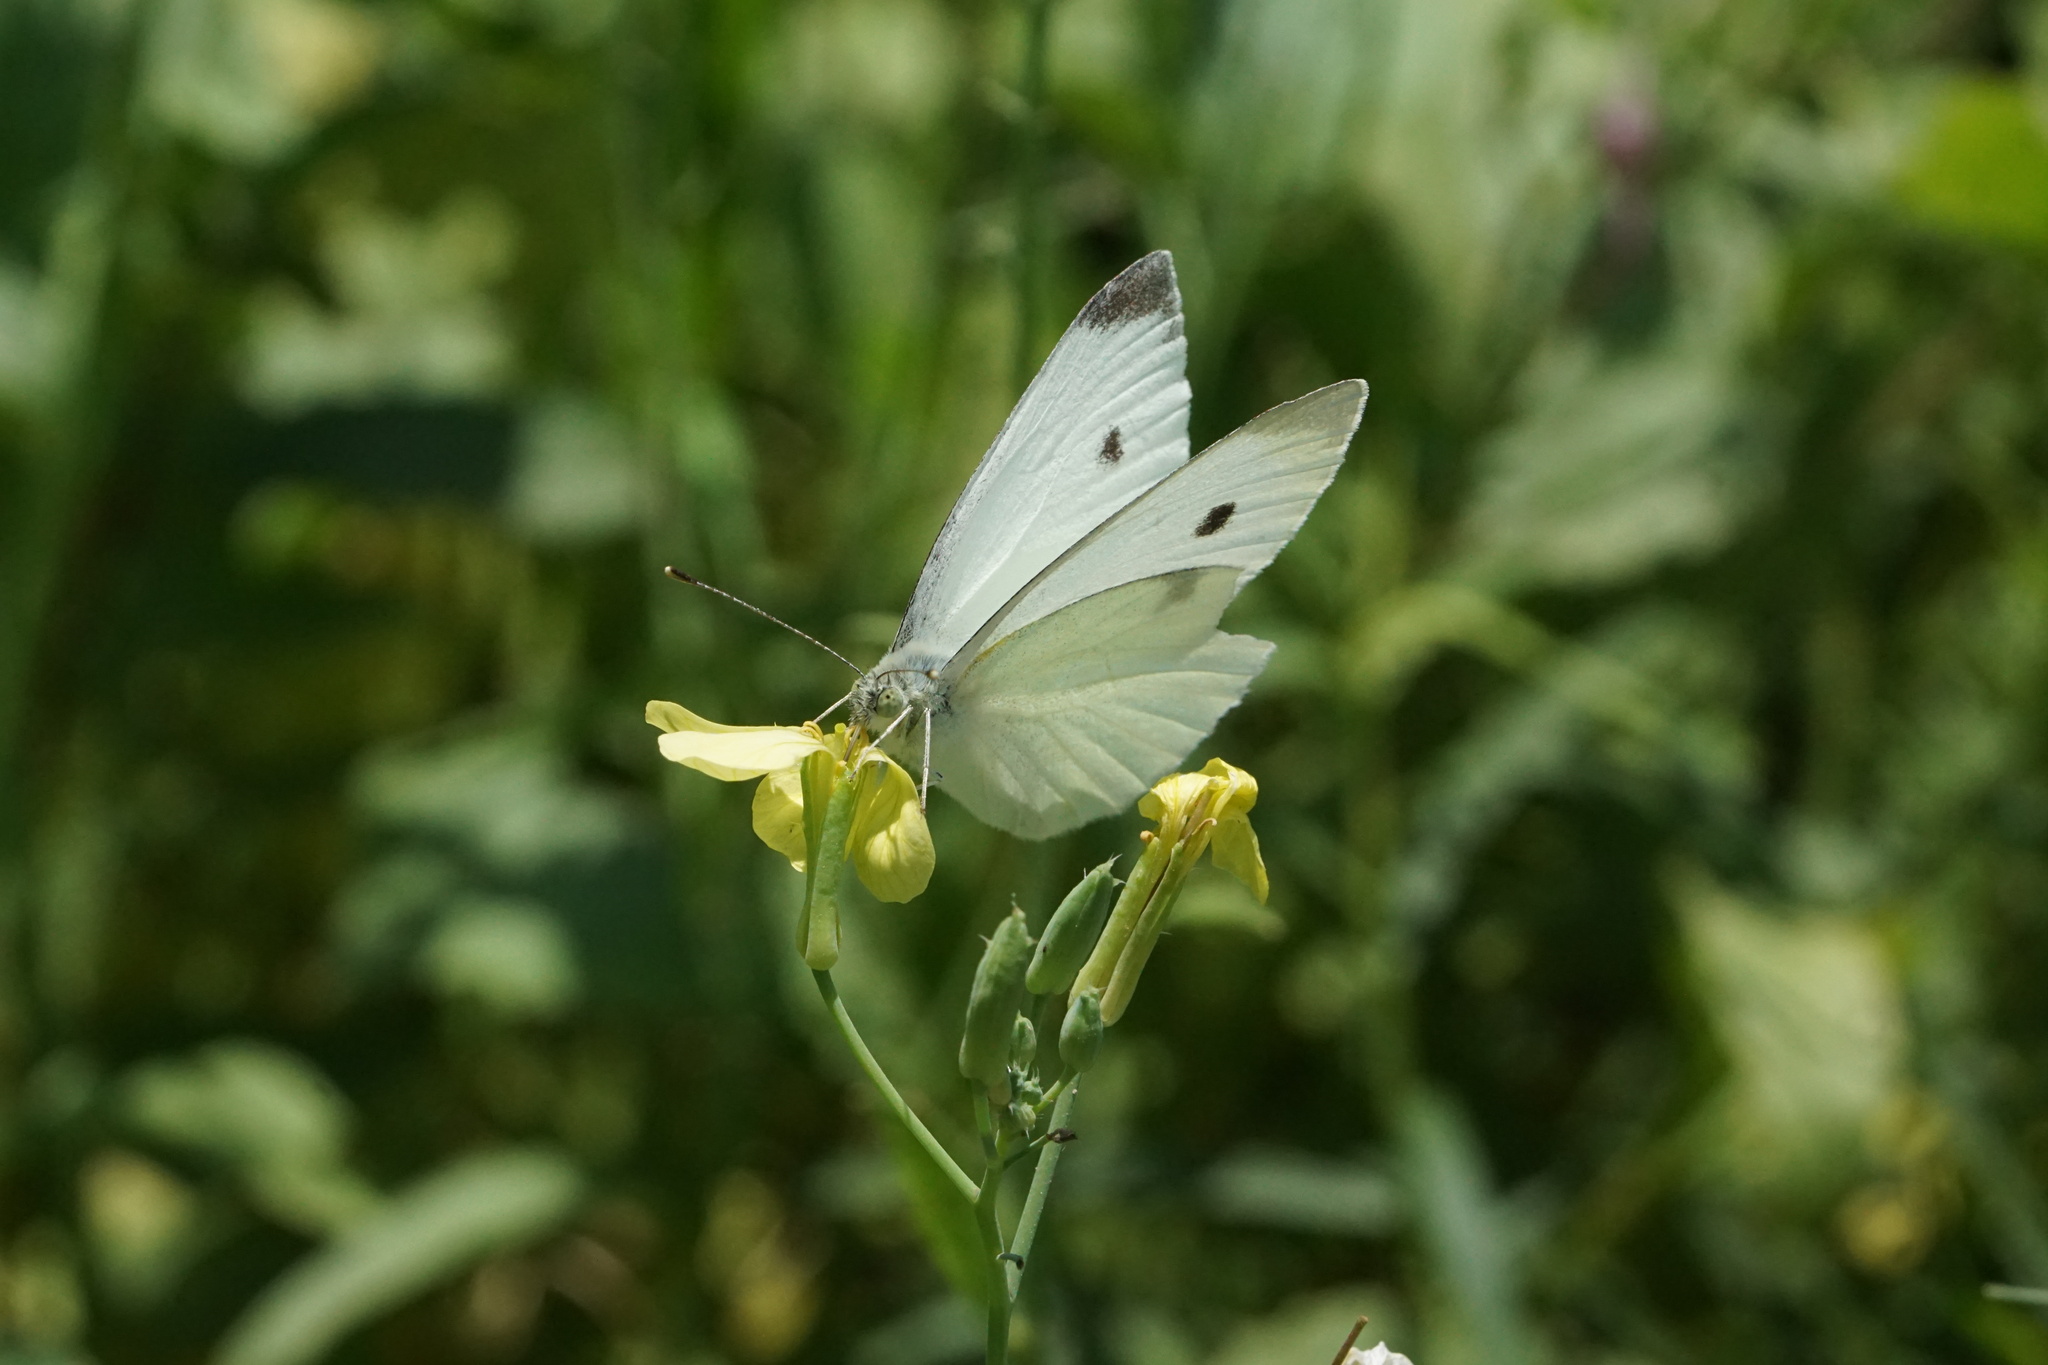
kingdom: Animalia
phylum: Arthropoda
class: Insecta
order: Lepidoptera
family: Pieridae
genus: Pieris
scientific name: Pieris rapae
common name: Small white
